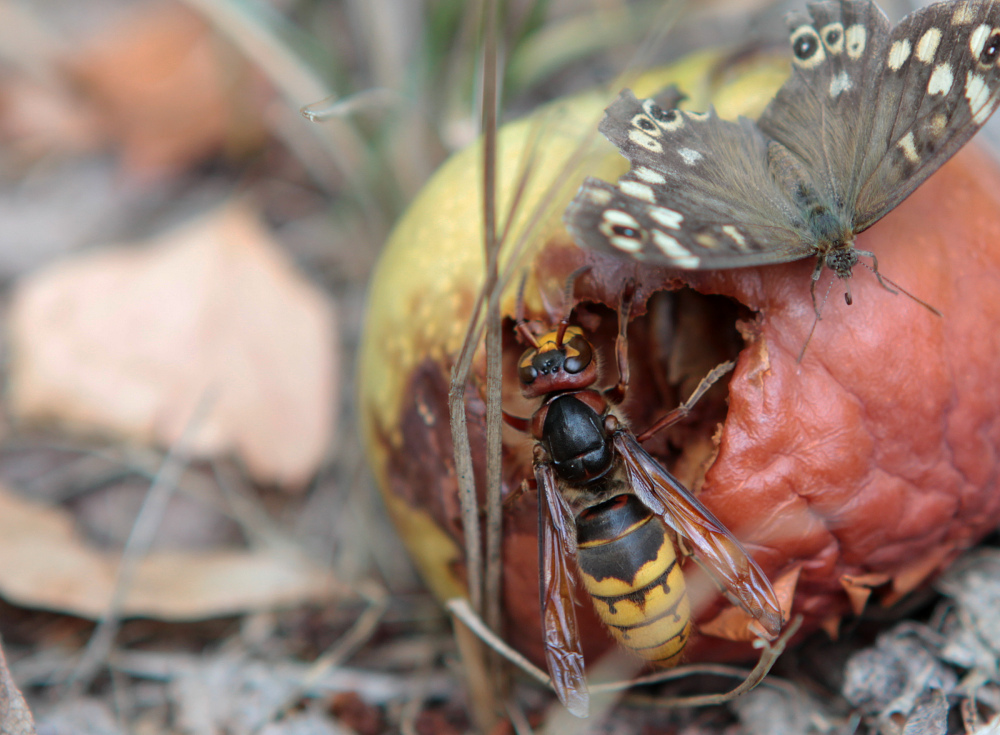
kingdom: Animalia
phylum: Arthropoda
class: Insecta
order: Hymenoptera
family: Vespidae
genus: Vespa
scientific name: Vespa crabro
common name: Hornet
